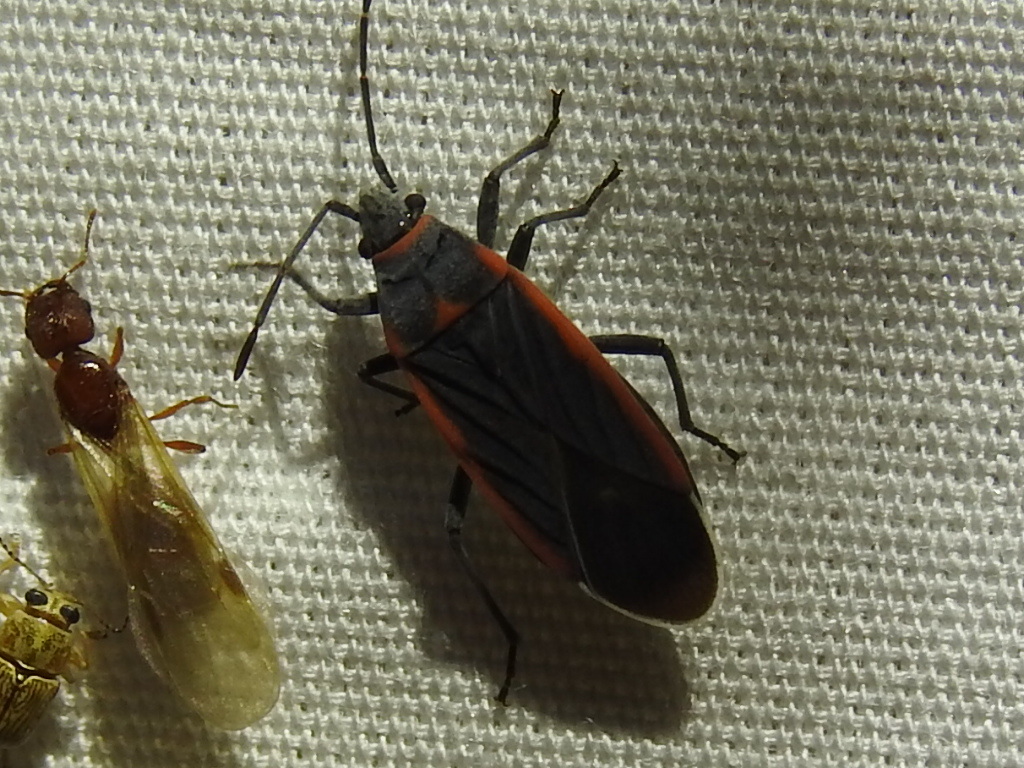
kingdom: Animalia
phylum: Arthropoda
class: Insecta
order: Hemiptera
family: Lygaeidae
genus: Melacoryphus
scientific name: Melacoryphus lateralis
